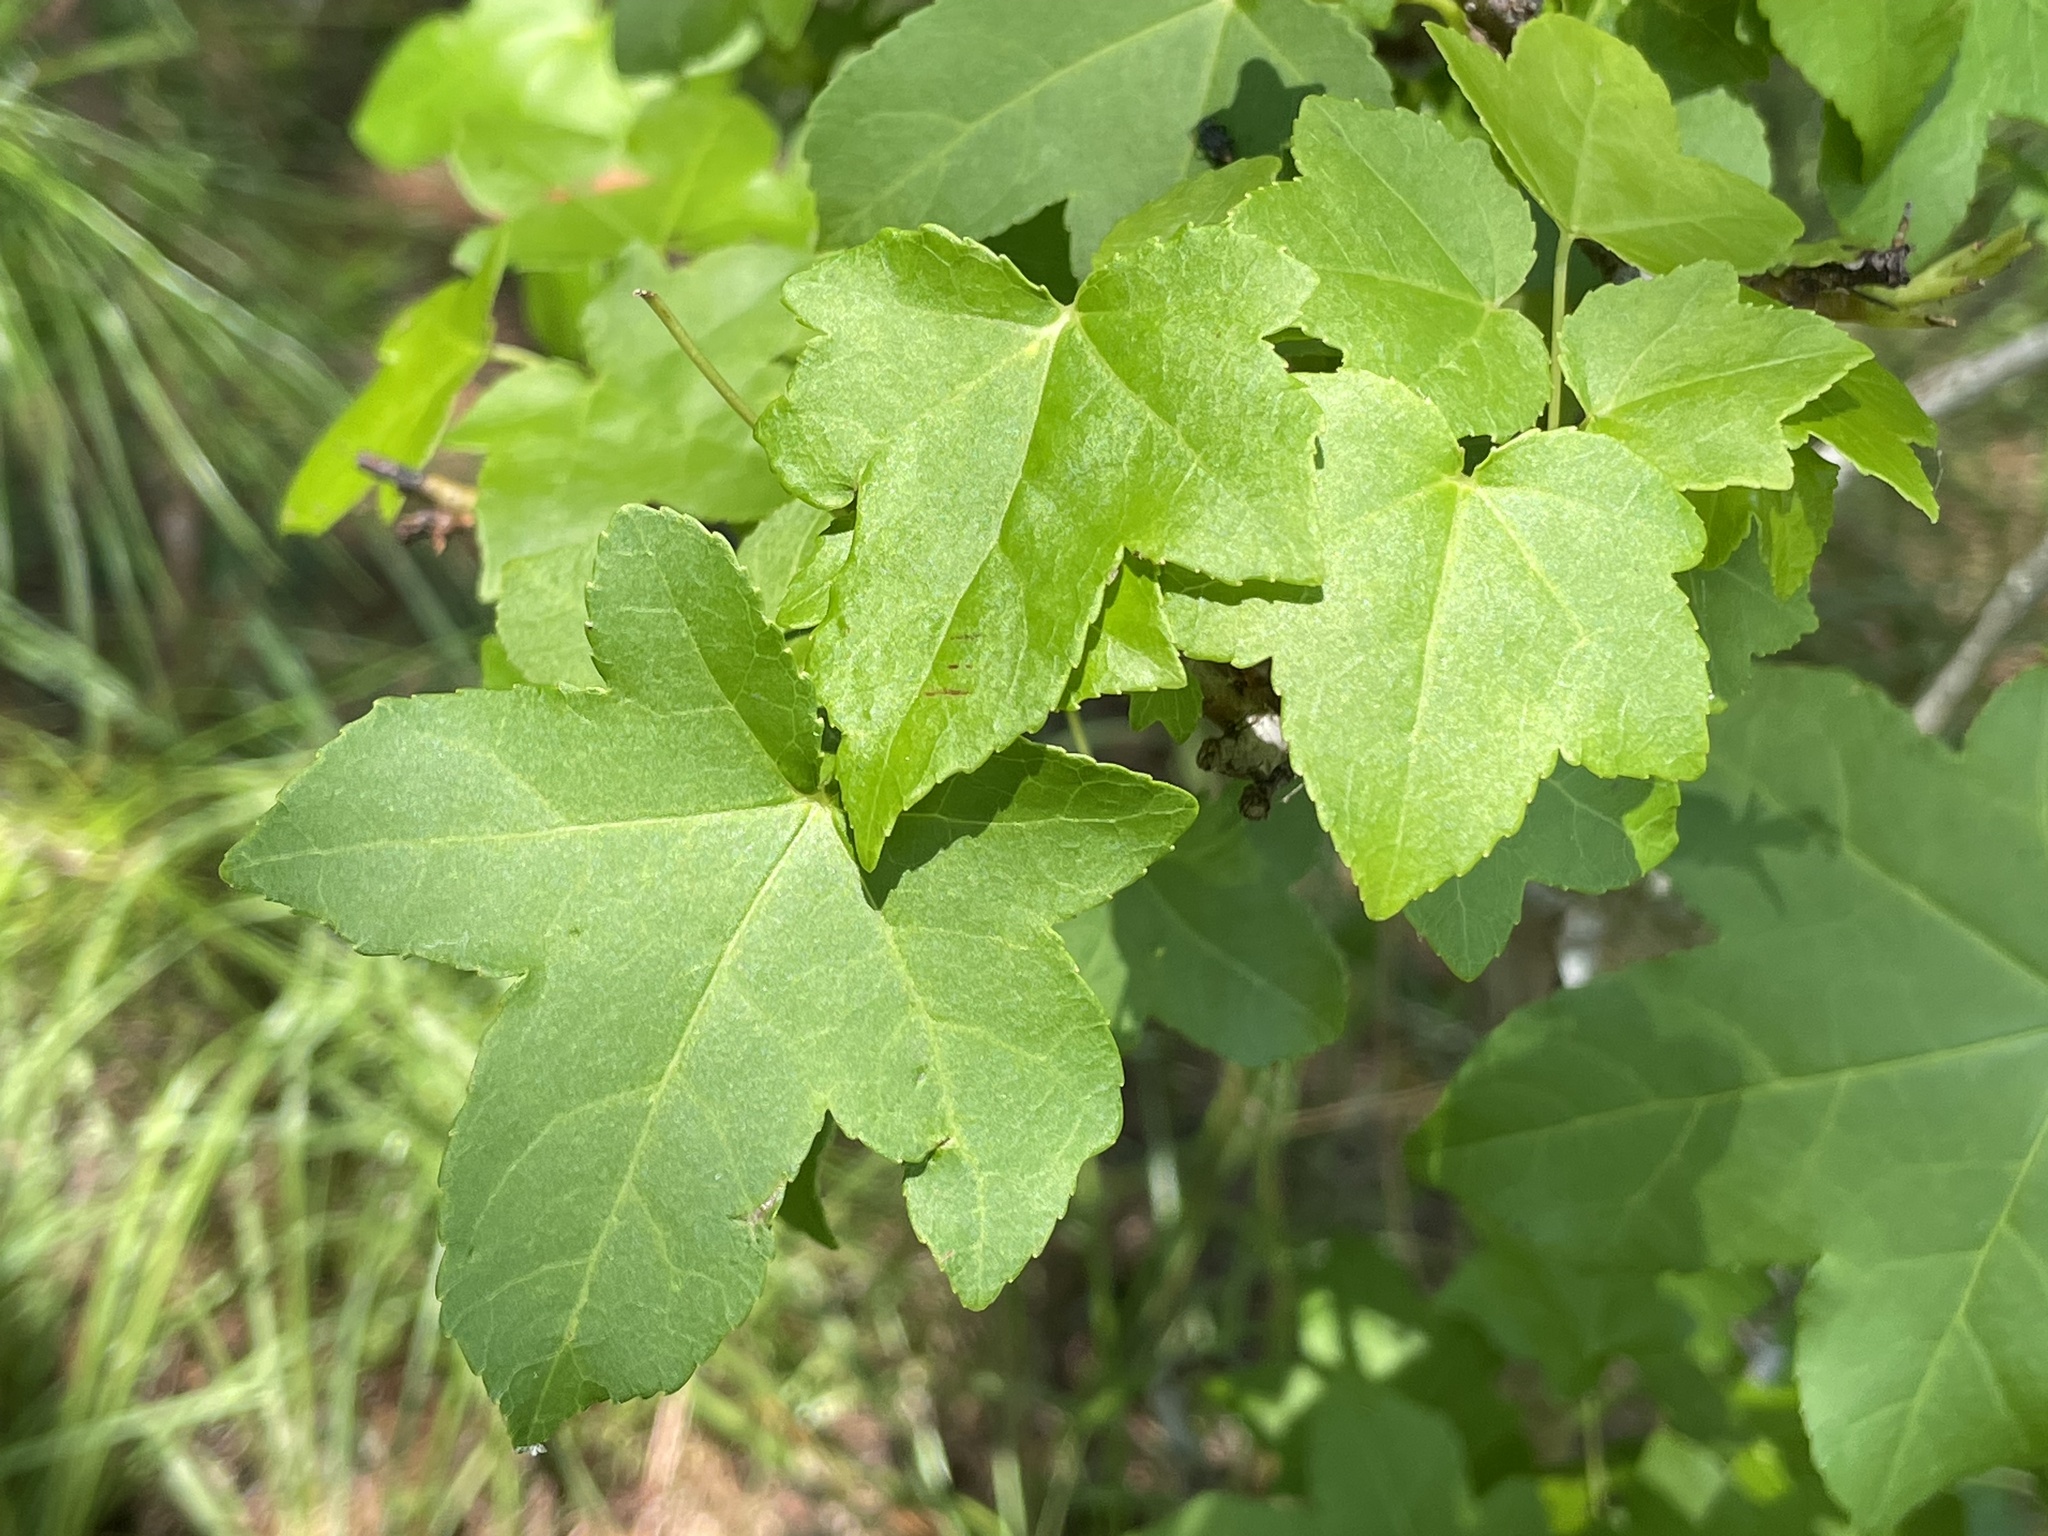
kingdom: Plantae
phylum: Tracheophyta
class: Magnoliopsida
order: Saxifragales
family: Altingiaceae
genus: Liquidambar
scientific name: Liquidambar styraciflua
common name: Sweet gum
